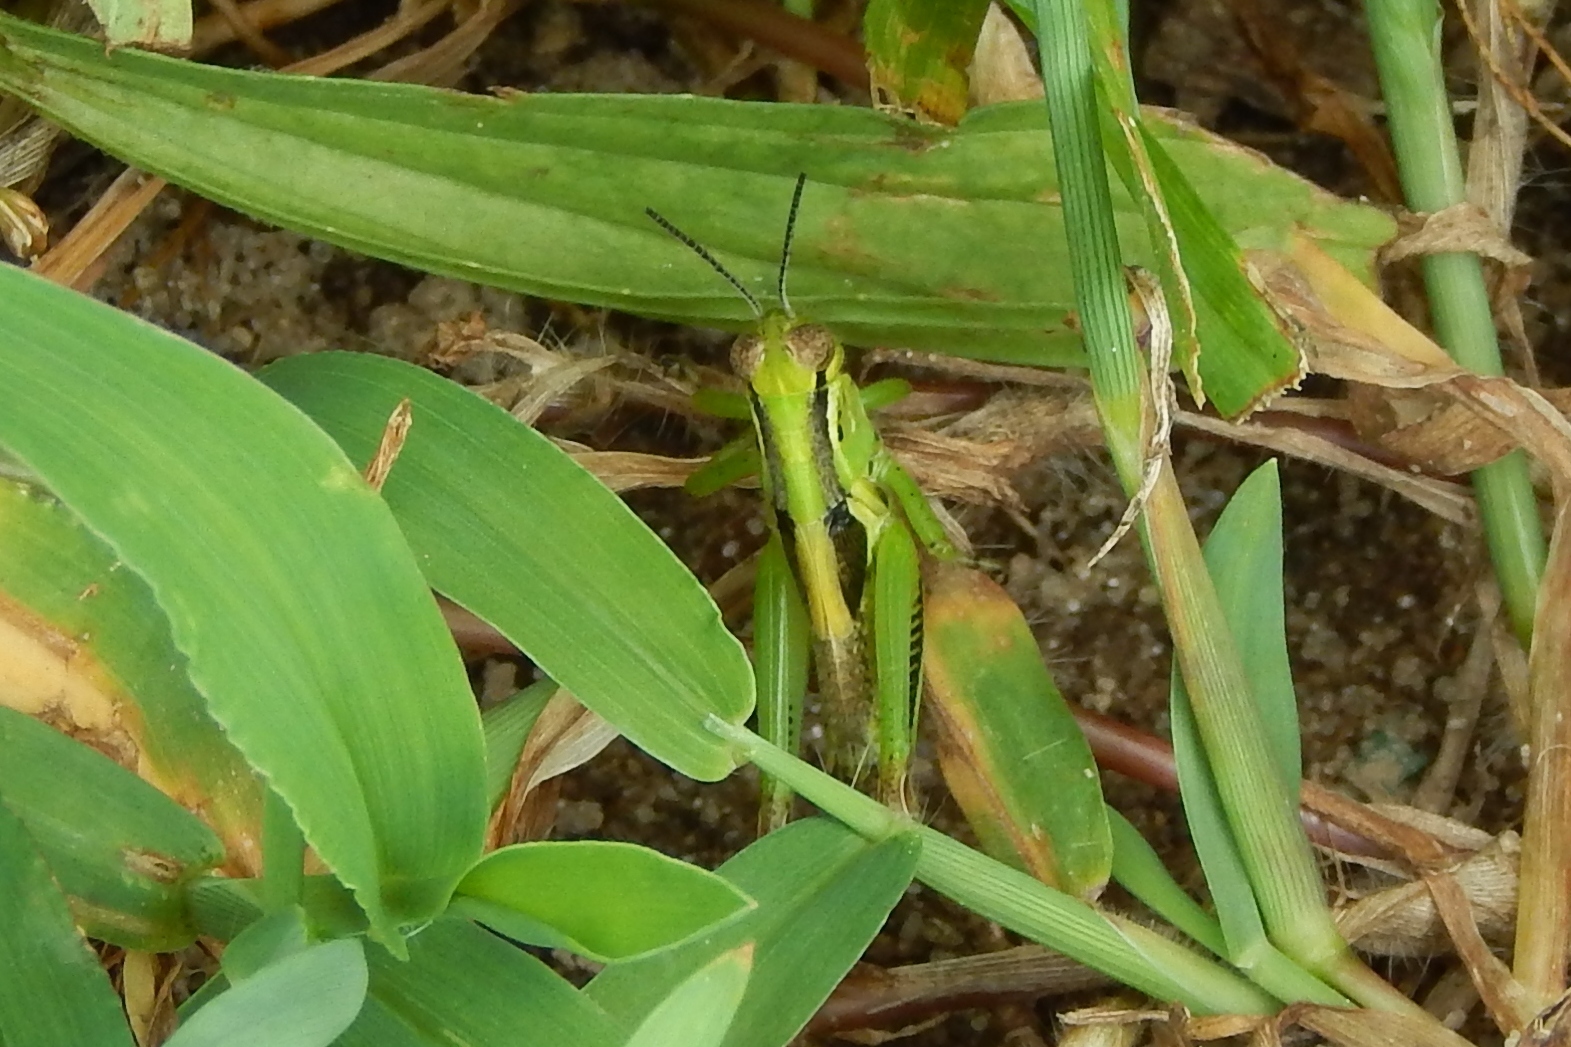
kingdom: Animalia
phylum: Arthropoda
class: Insecta
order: Orthoptera
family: Acrididae
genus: Melanoplus
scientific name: Melanoplus
